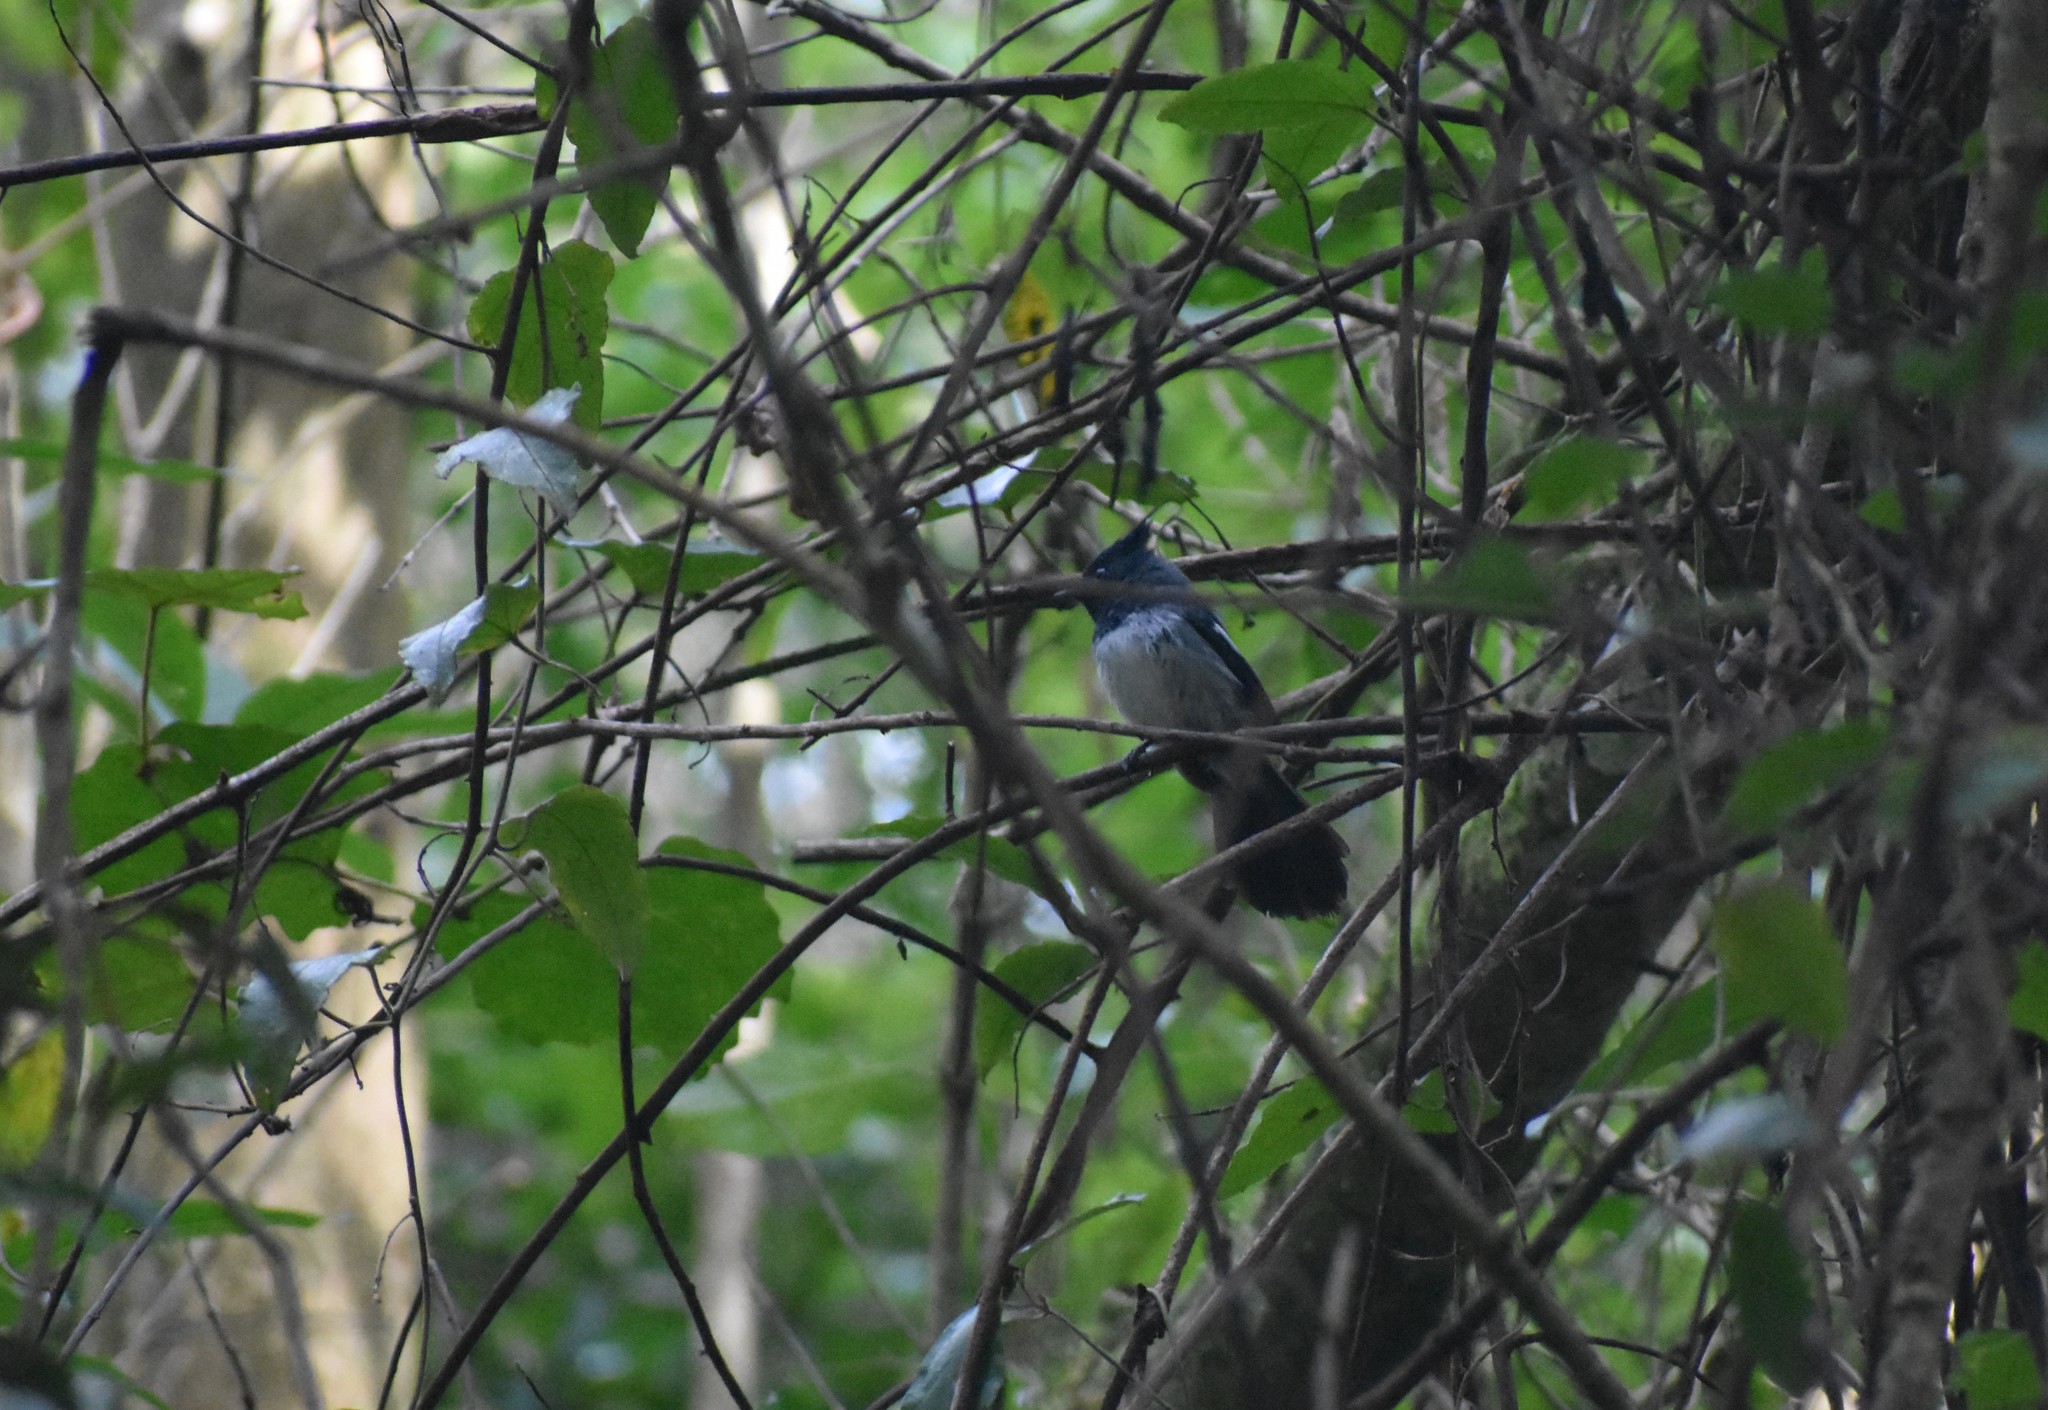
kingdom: Animalia
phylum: Chordata
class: Aves
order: Passeriformes
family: Monarchidae
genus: Trochocercus
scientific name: Trochocercus cyanomelas
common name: Blue-mantled crested flycatcher
